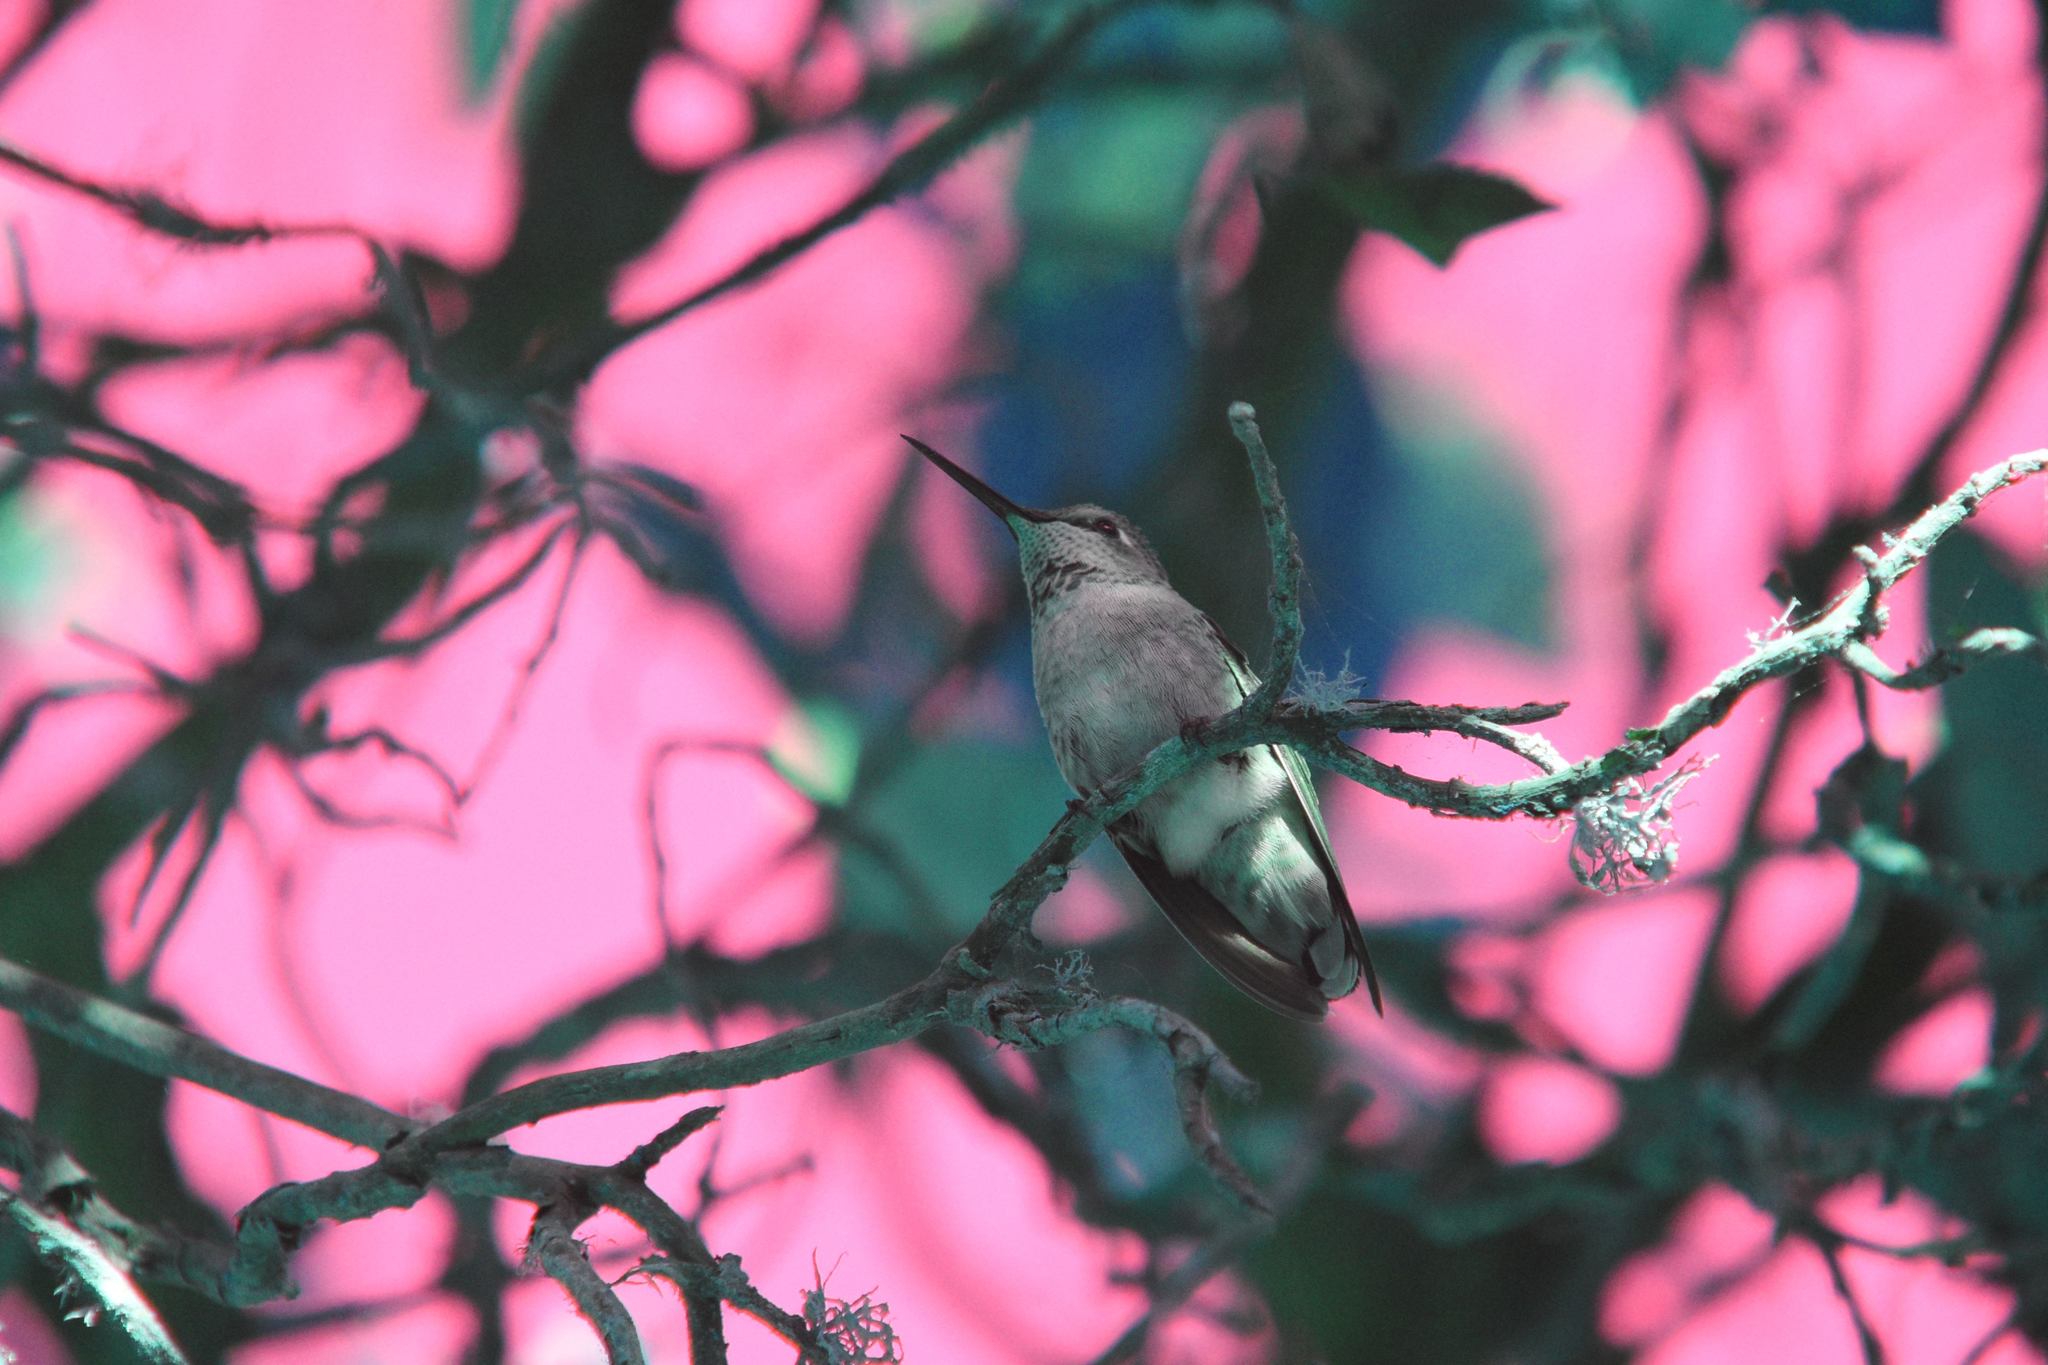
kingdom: Animalia
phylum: Chordata
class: Aves
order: Apodiformes
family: Trochilidae
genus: Calypte
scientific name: Calypte anna
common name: Anna's hummingbird
